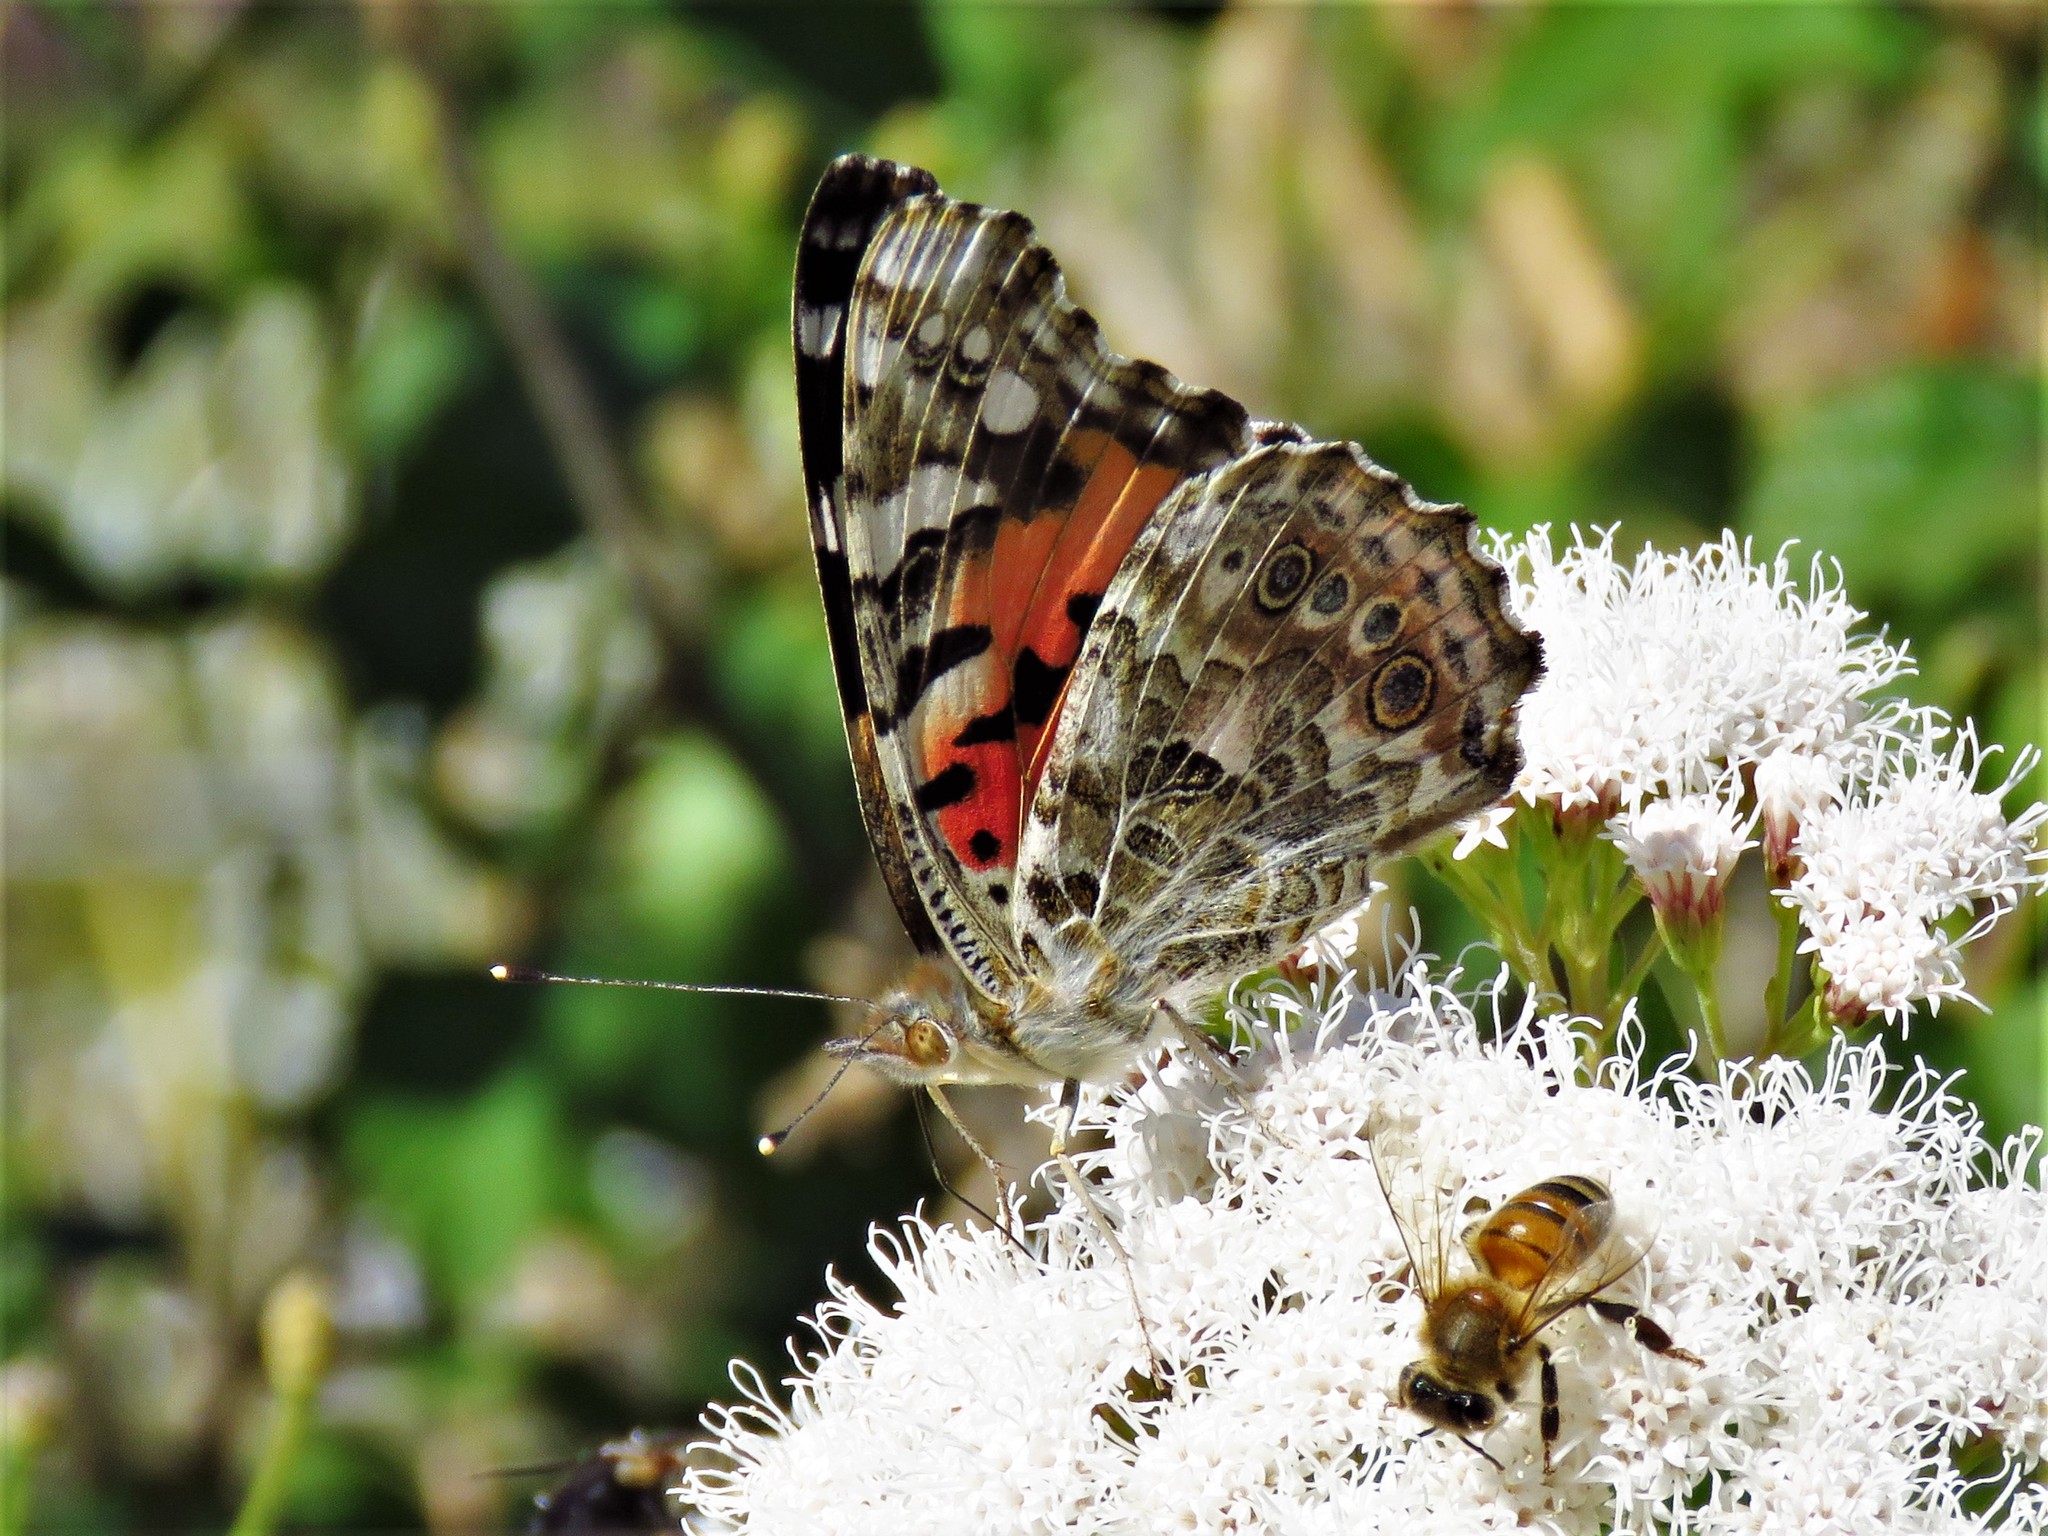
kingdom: Animalia
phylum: Arthropoda
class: Insecta
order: Lepidoptera
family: Nymphalidae
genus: Vanessa
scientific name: Vanessa cardui
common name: Painted lady
